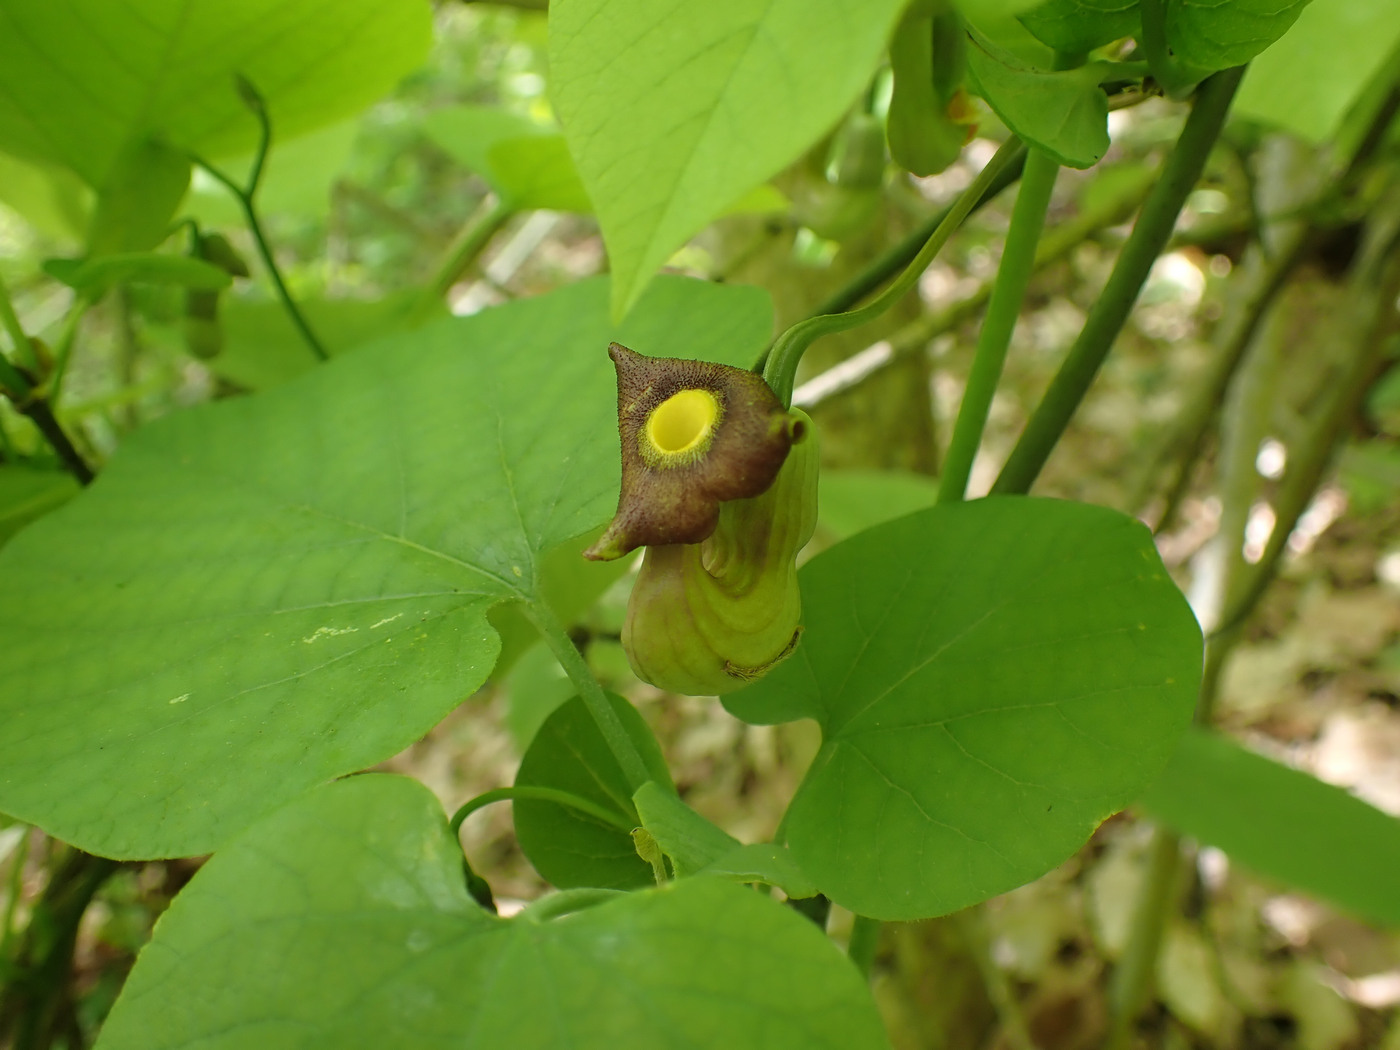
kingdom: Plantae
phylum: Tracheophyta
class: Magnoliopsida
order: Piperales
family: Aristolochiaceae
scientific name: Aristolochiaceae
